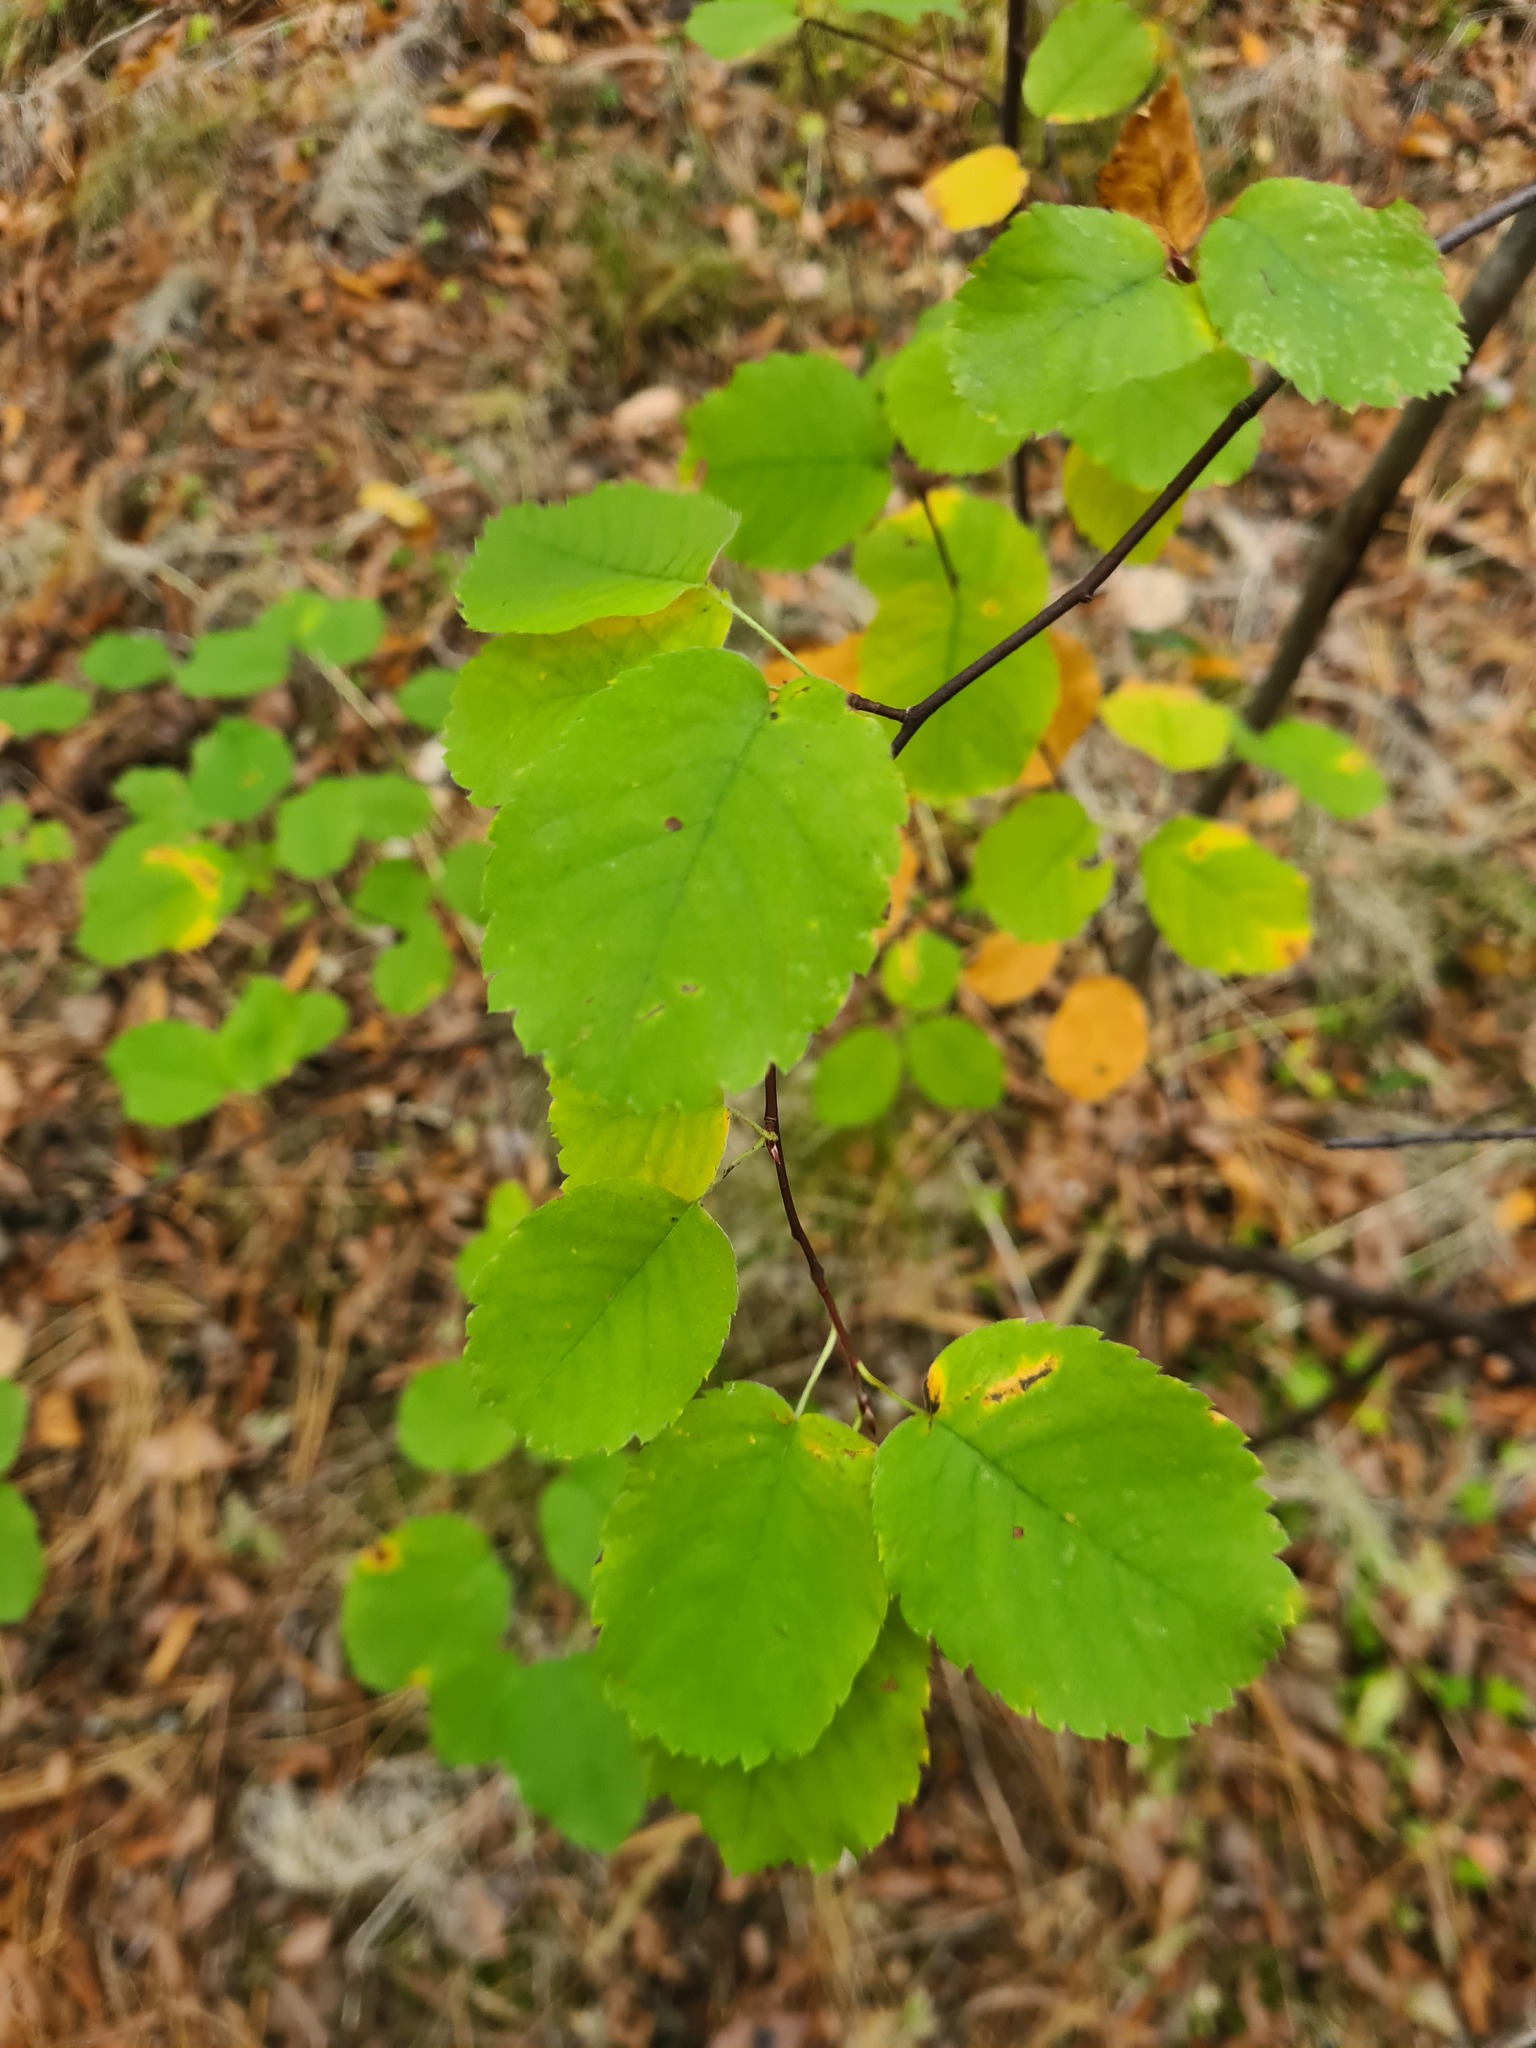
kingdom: Plantae
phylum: Tracheophyta
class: Magnoliopsida
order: Rosales
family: Rosaceae
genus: Amelanchier
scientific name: Amelanchier alnifolia
